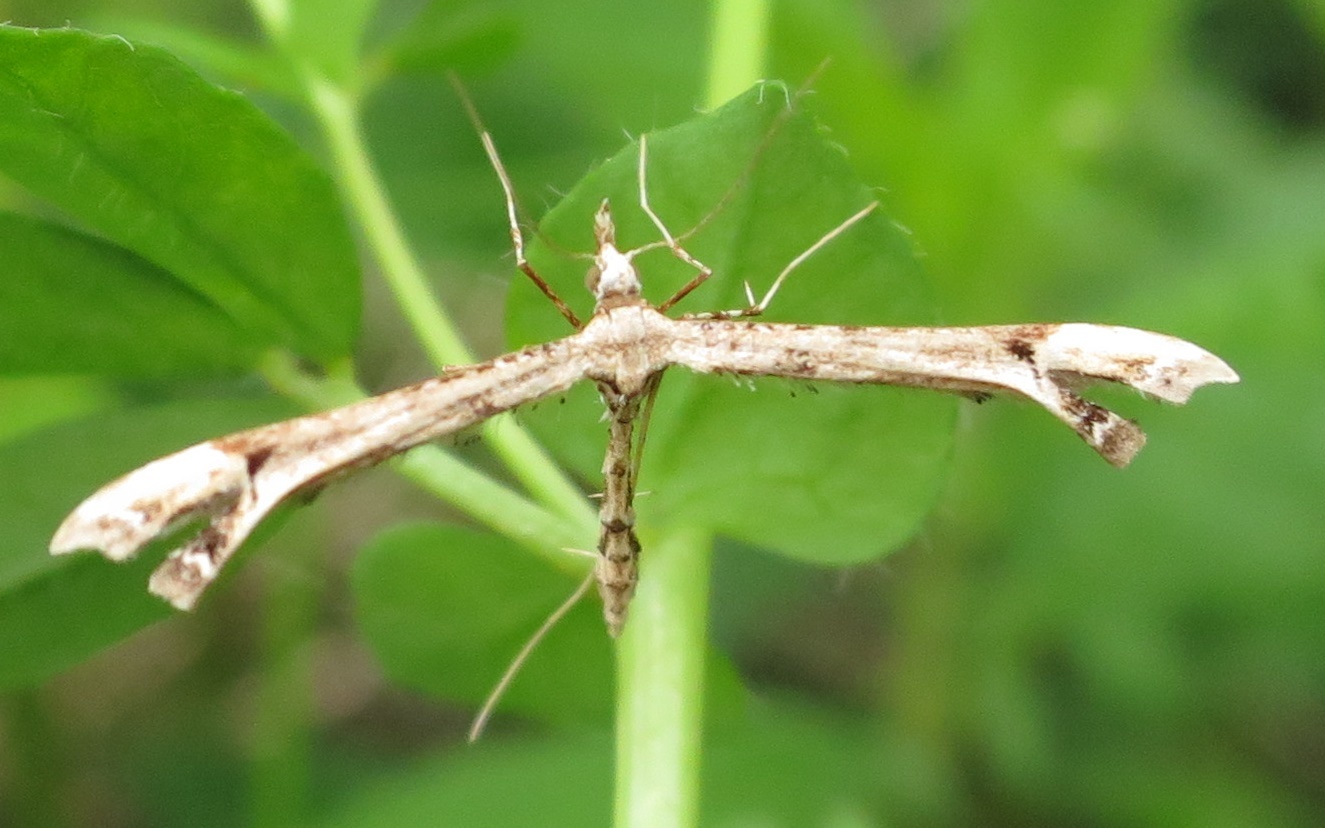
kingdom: Animalia
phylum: Arthropoda
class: Insecta
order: Lepidoptera
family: Pterophoridae
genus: Amblyptilia
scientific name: Amblyptilia repletalis
